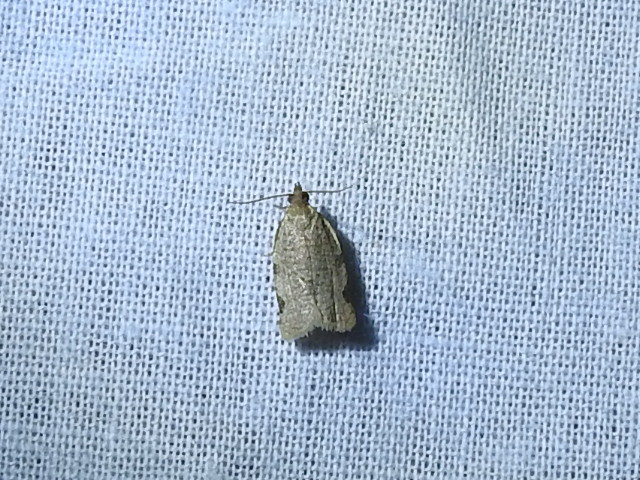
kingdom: Animalia
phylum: Arthropoda
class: Insecta
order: Lepidoptera
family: Tortricidae
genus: Clepsis
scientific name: Clepsis virescana
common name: Greenish apple moth
